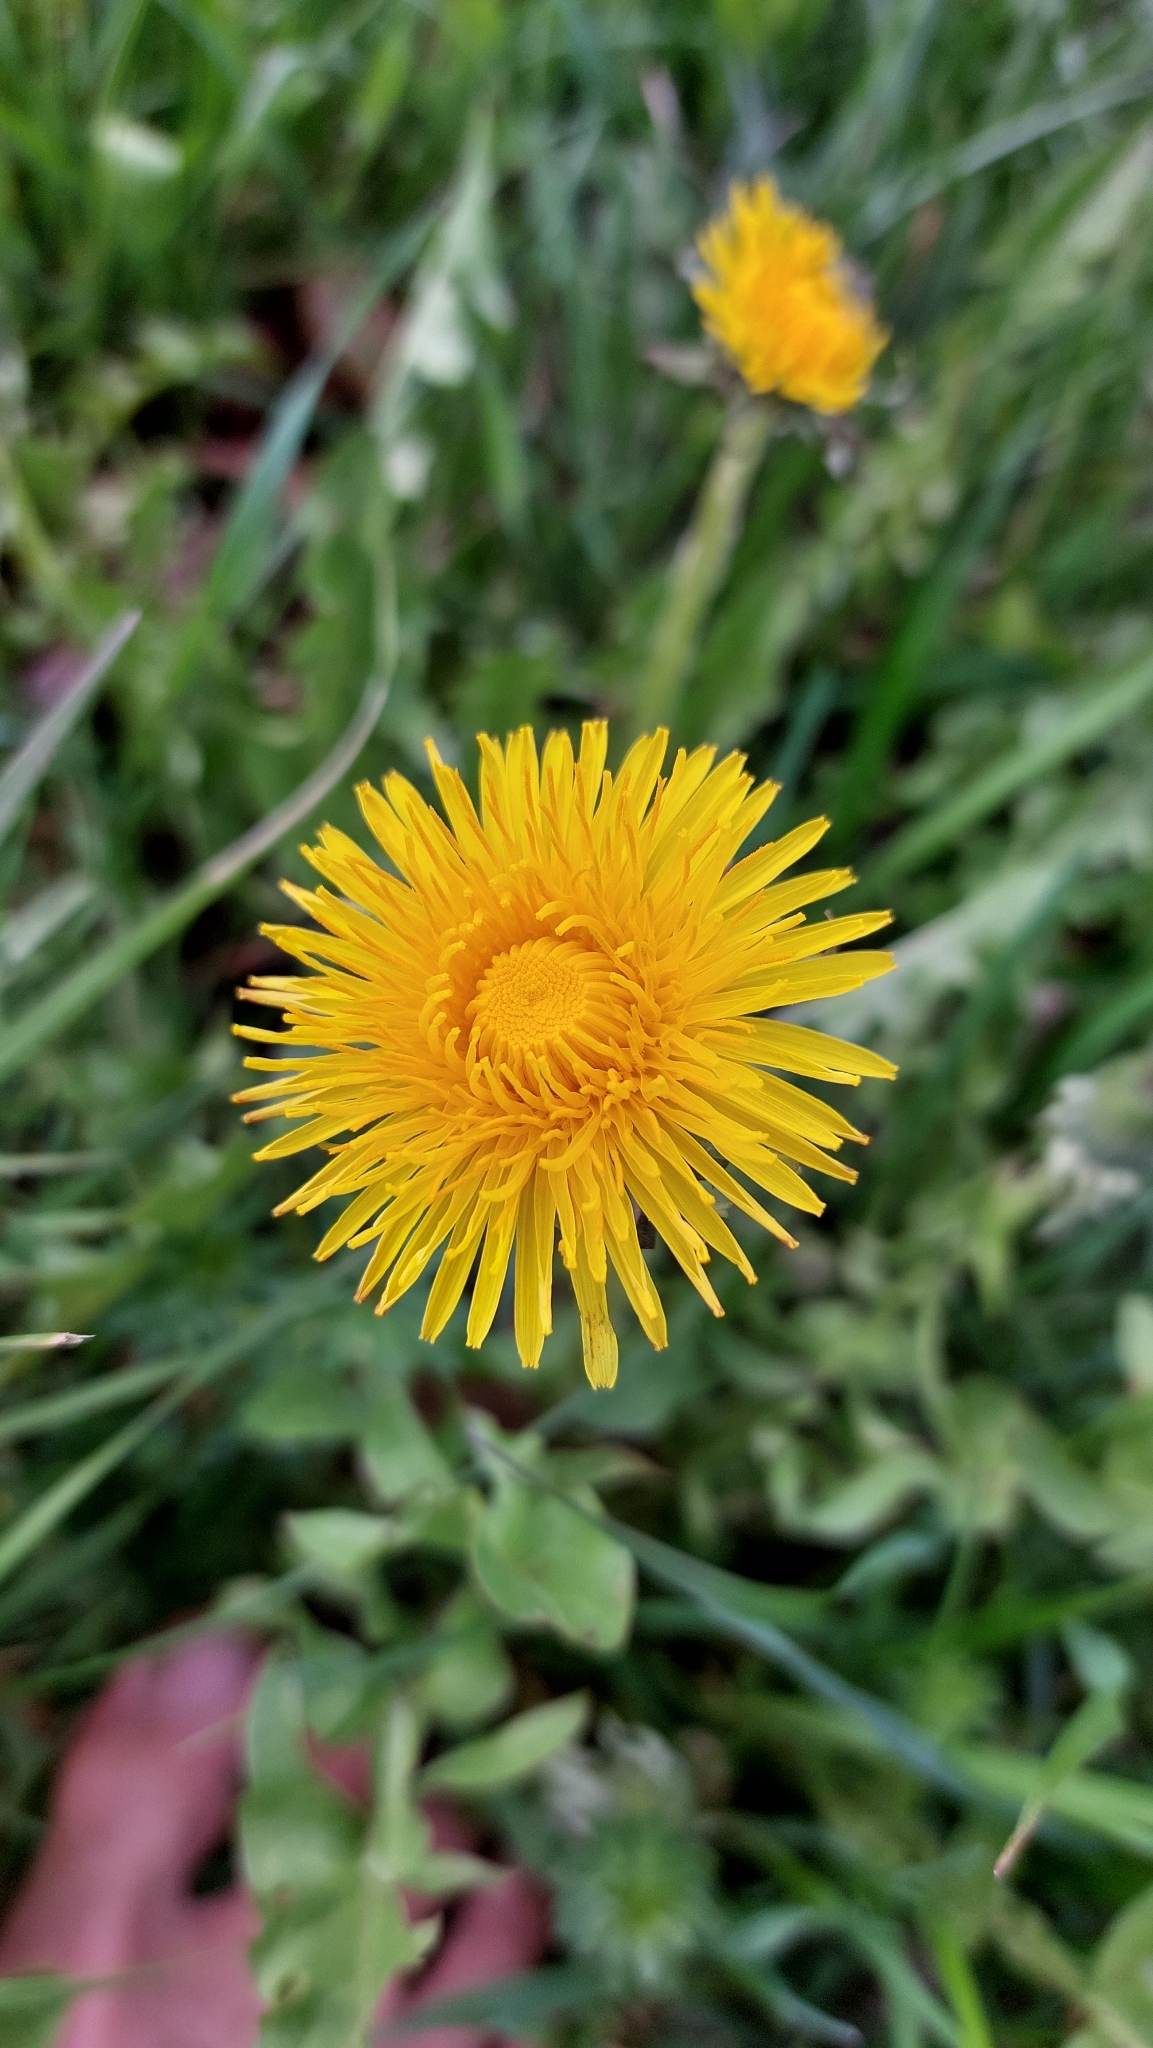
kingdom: Plantae
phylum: Tracheophyta
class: Magnoliopsida
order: Asterales
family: Asteraceae
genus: Taraxacum
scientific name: Taraxacum
